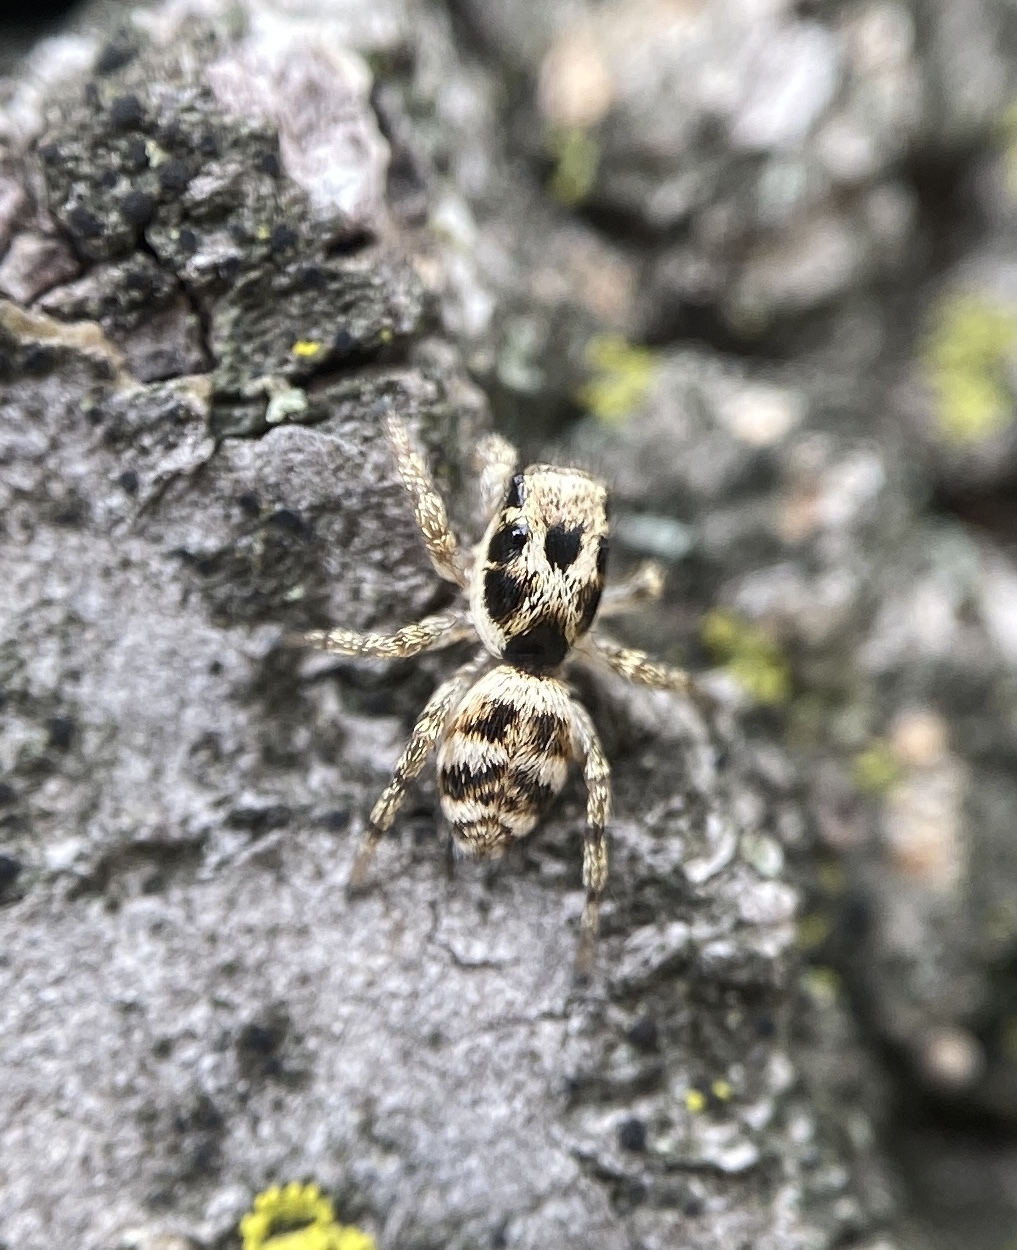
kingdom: Animalia
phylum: Arthropoda
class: Arachnida
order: Araneae
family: Salticidae
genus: Salticus
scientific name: Salticus scenicus
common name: Zebra jumper
